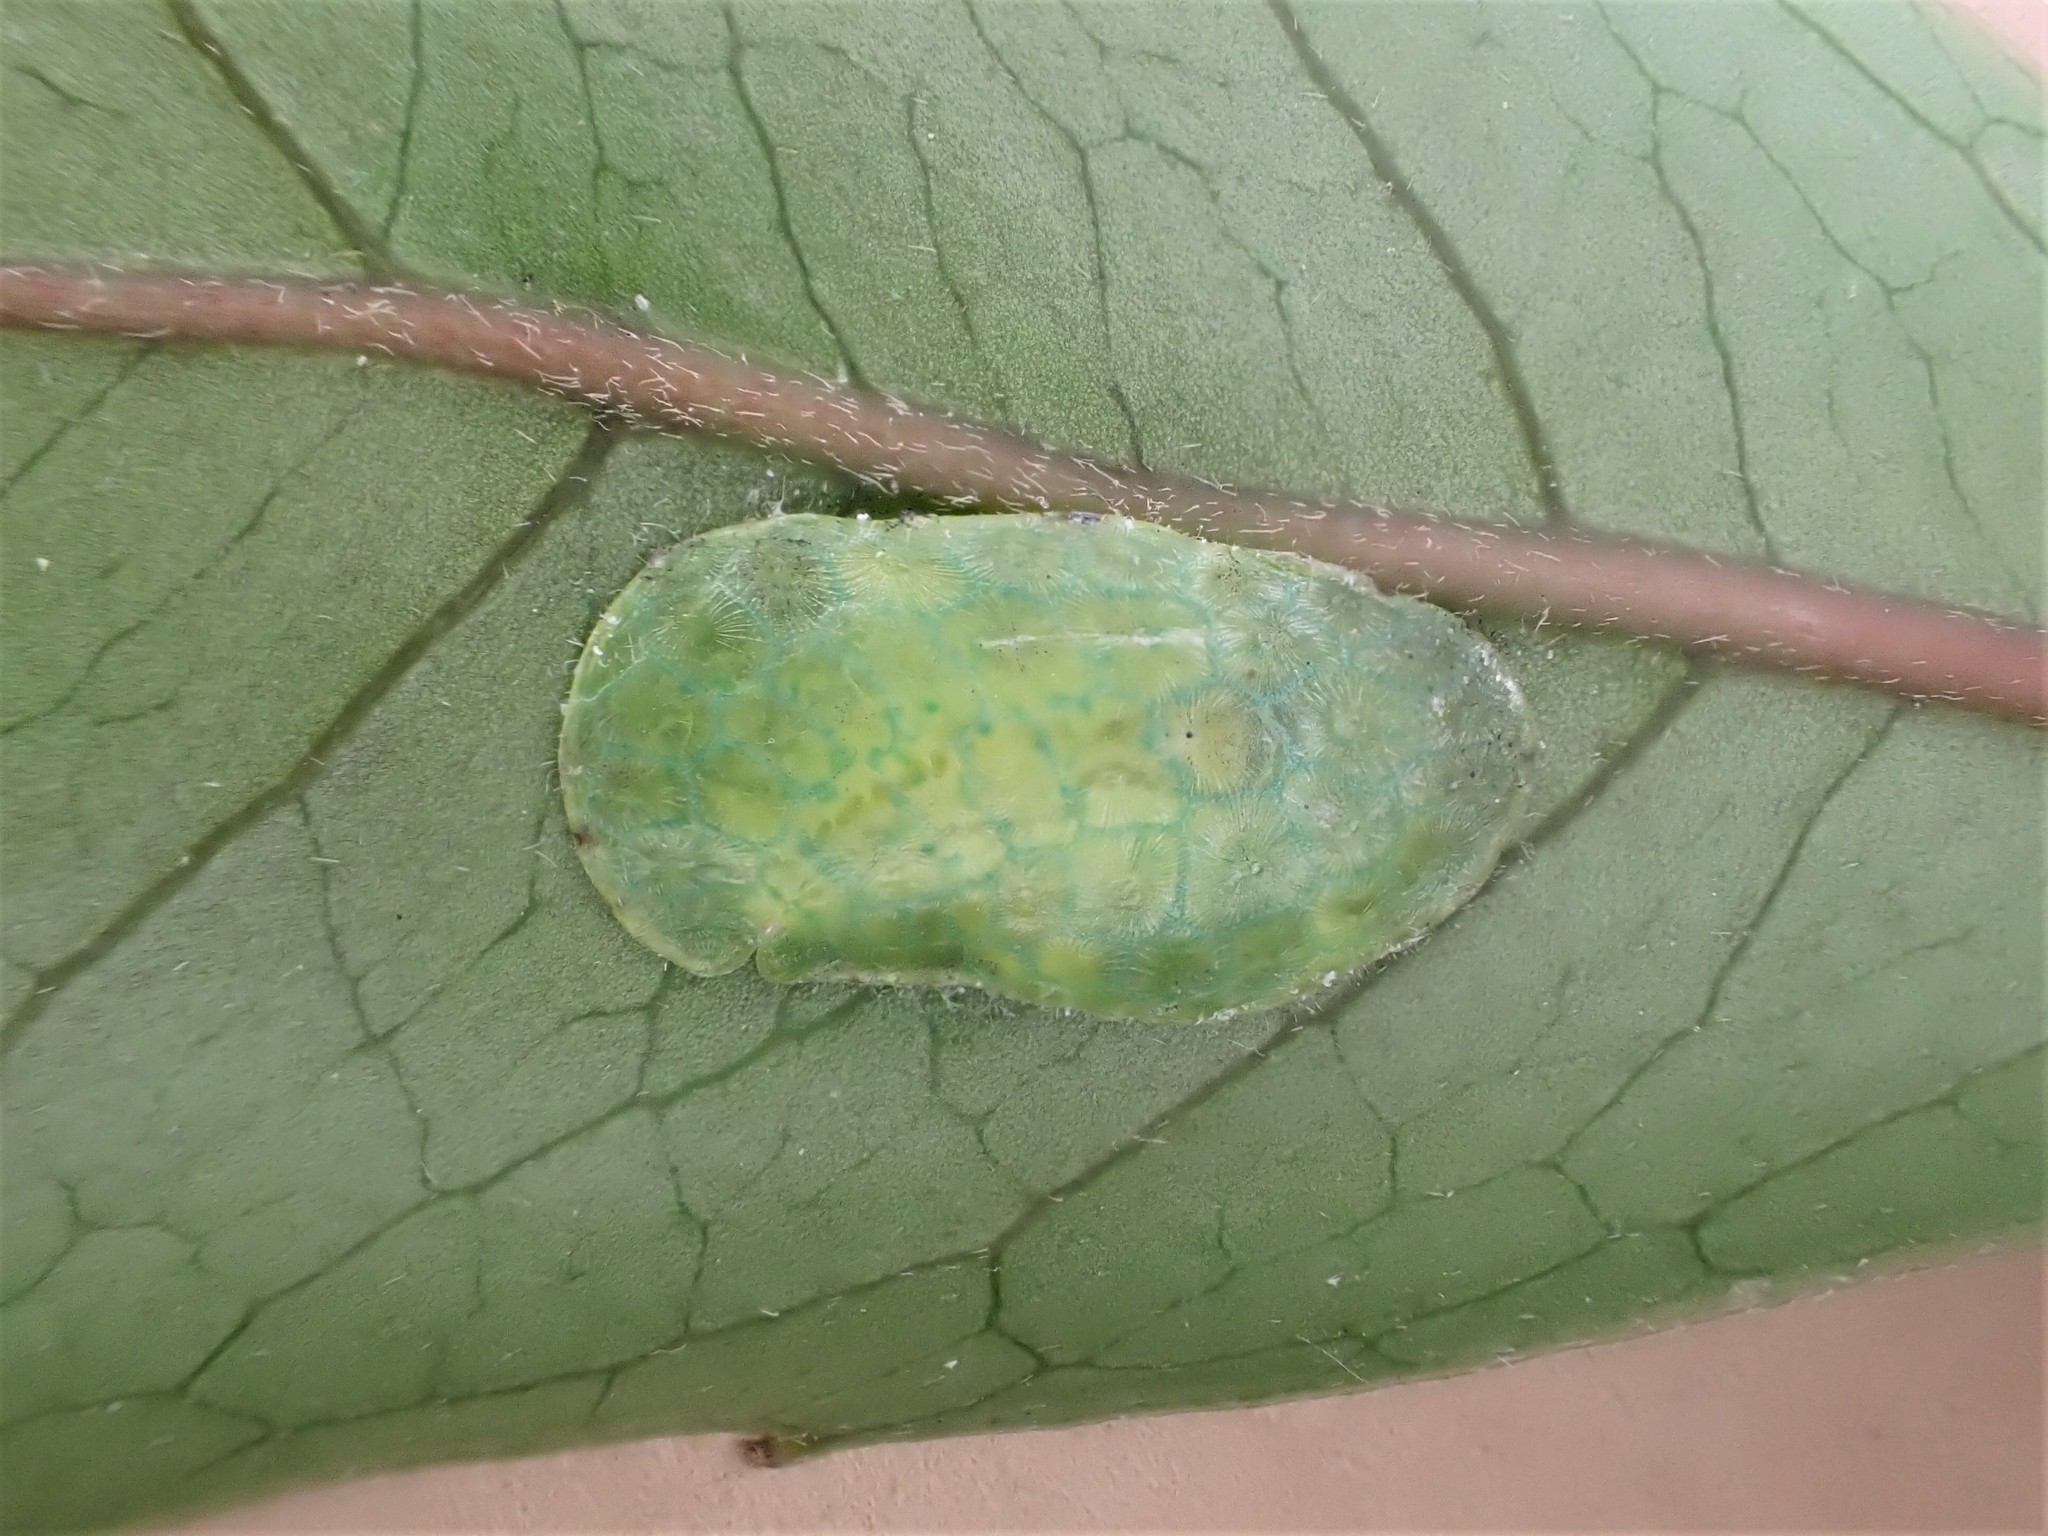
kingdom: Animalia
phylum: Arthropoda
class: Insecta
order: Hemiptera
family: Coccidae
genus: Ctenochiton
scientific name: Ctenochiton paraviridis
